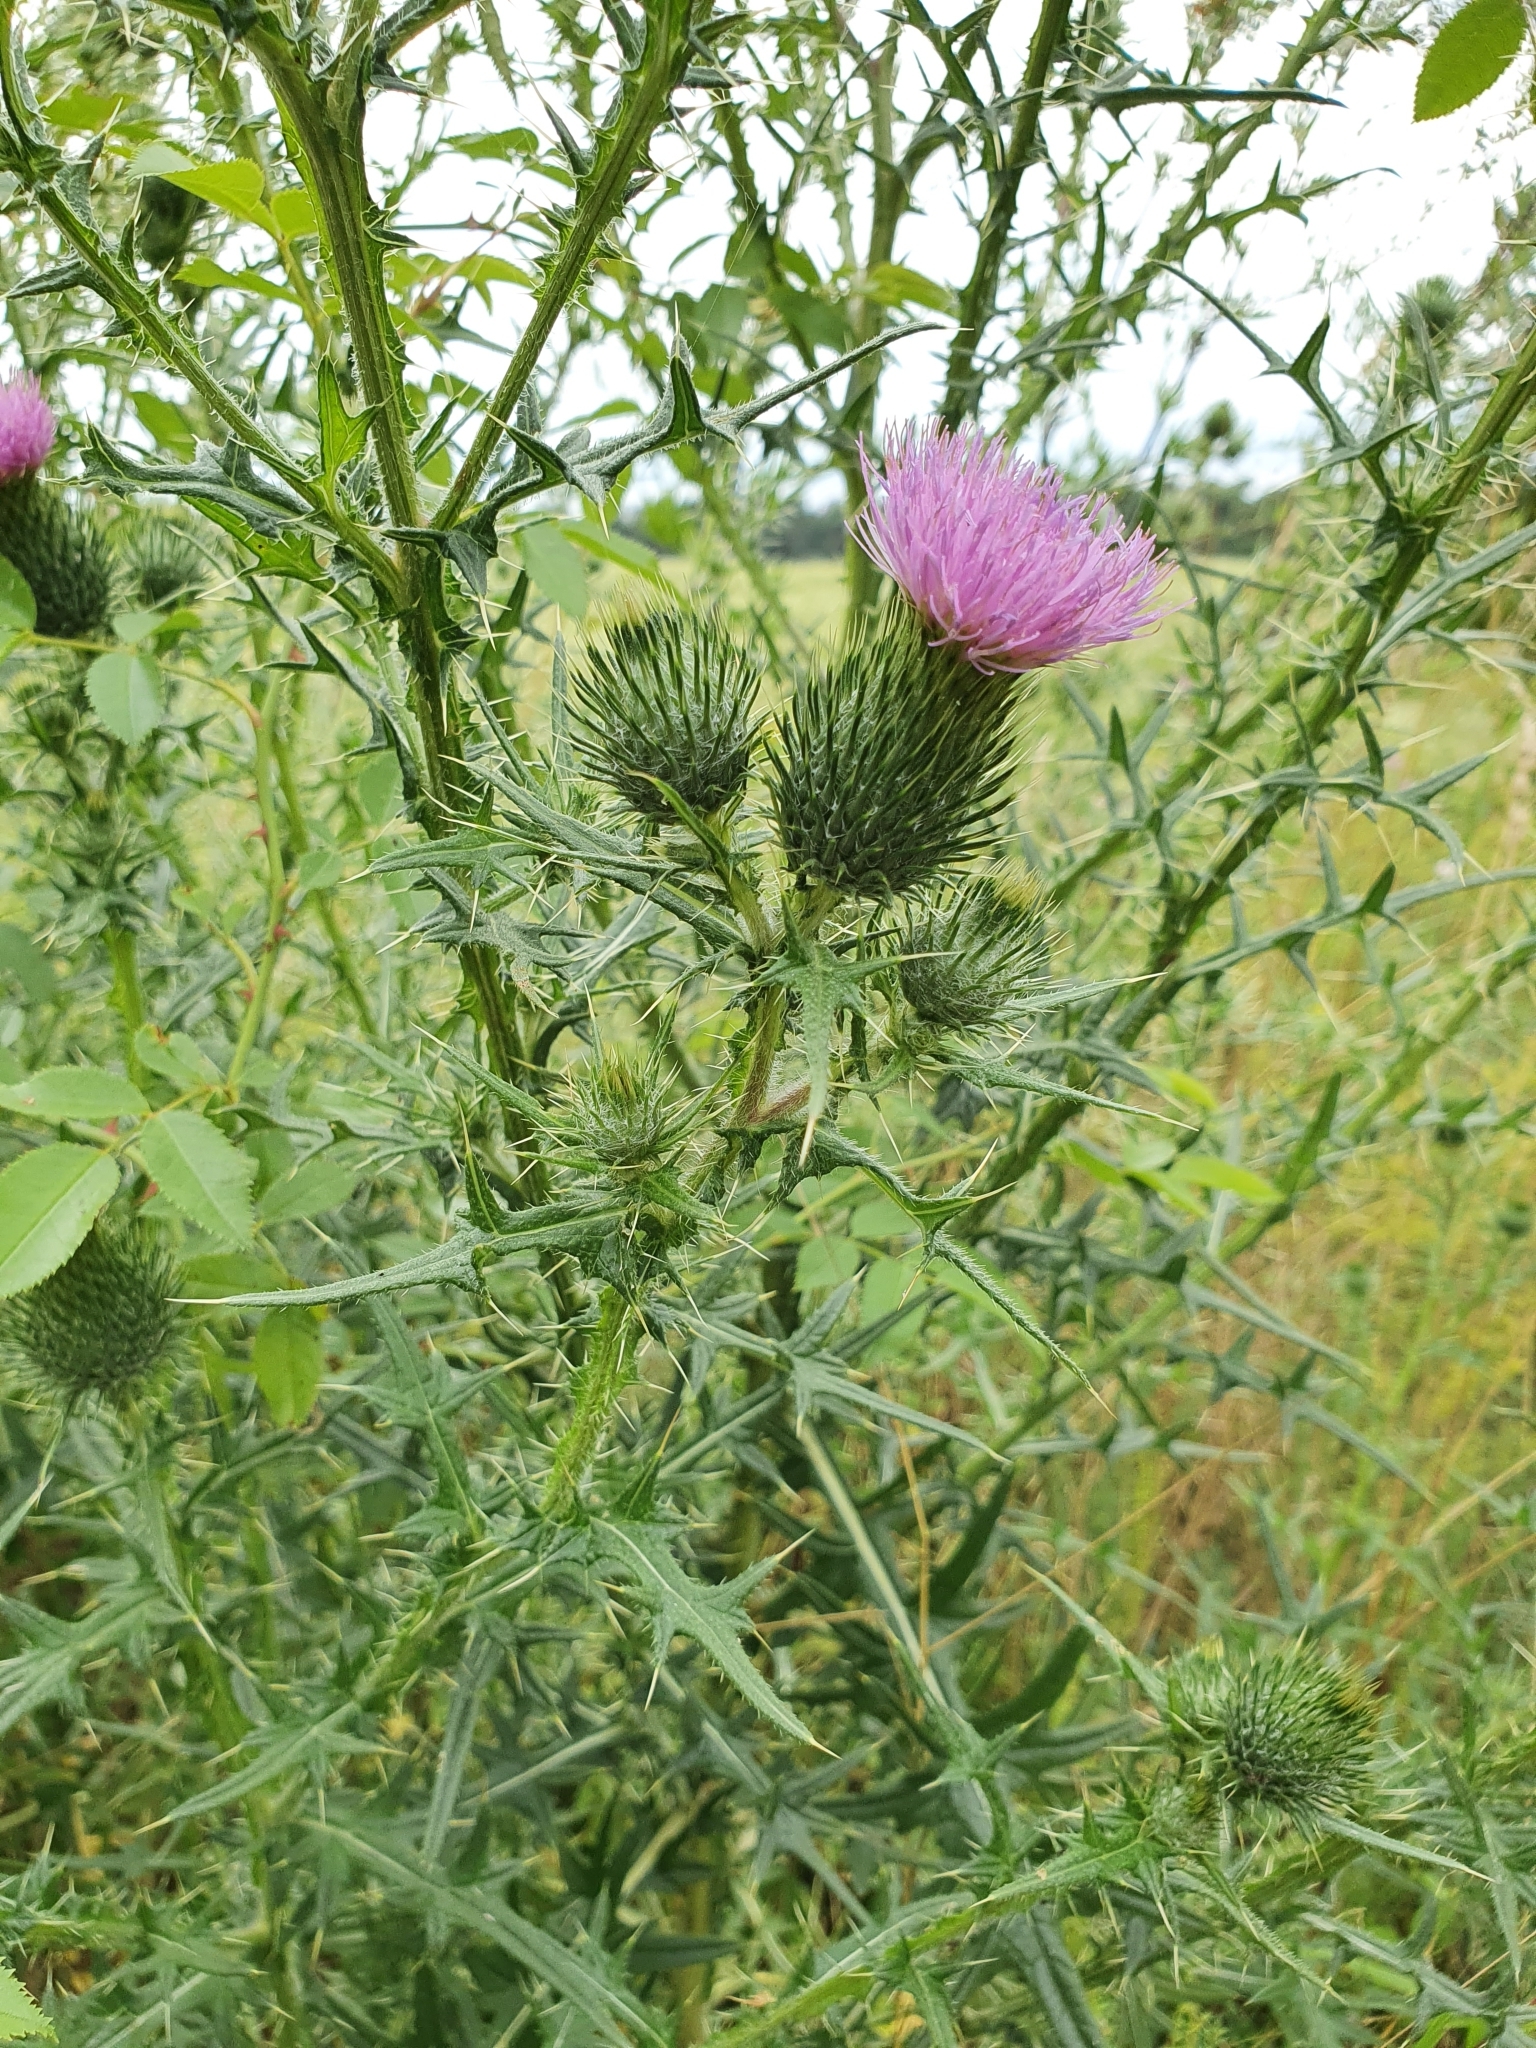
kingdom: Plantae
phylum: Tracheophyta
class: Magnoliopsida
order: Asterales
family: Asteraceae
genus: Cirsium
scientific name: Cirsium vulgare
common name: Bull thistle
